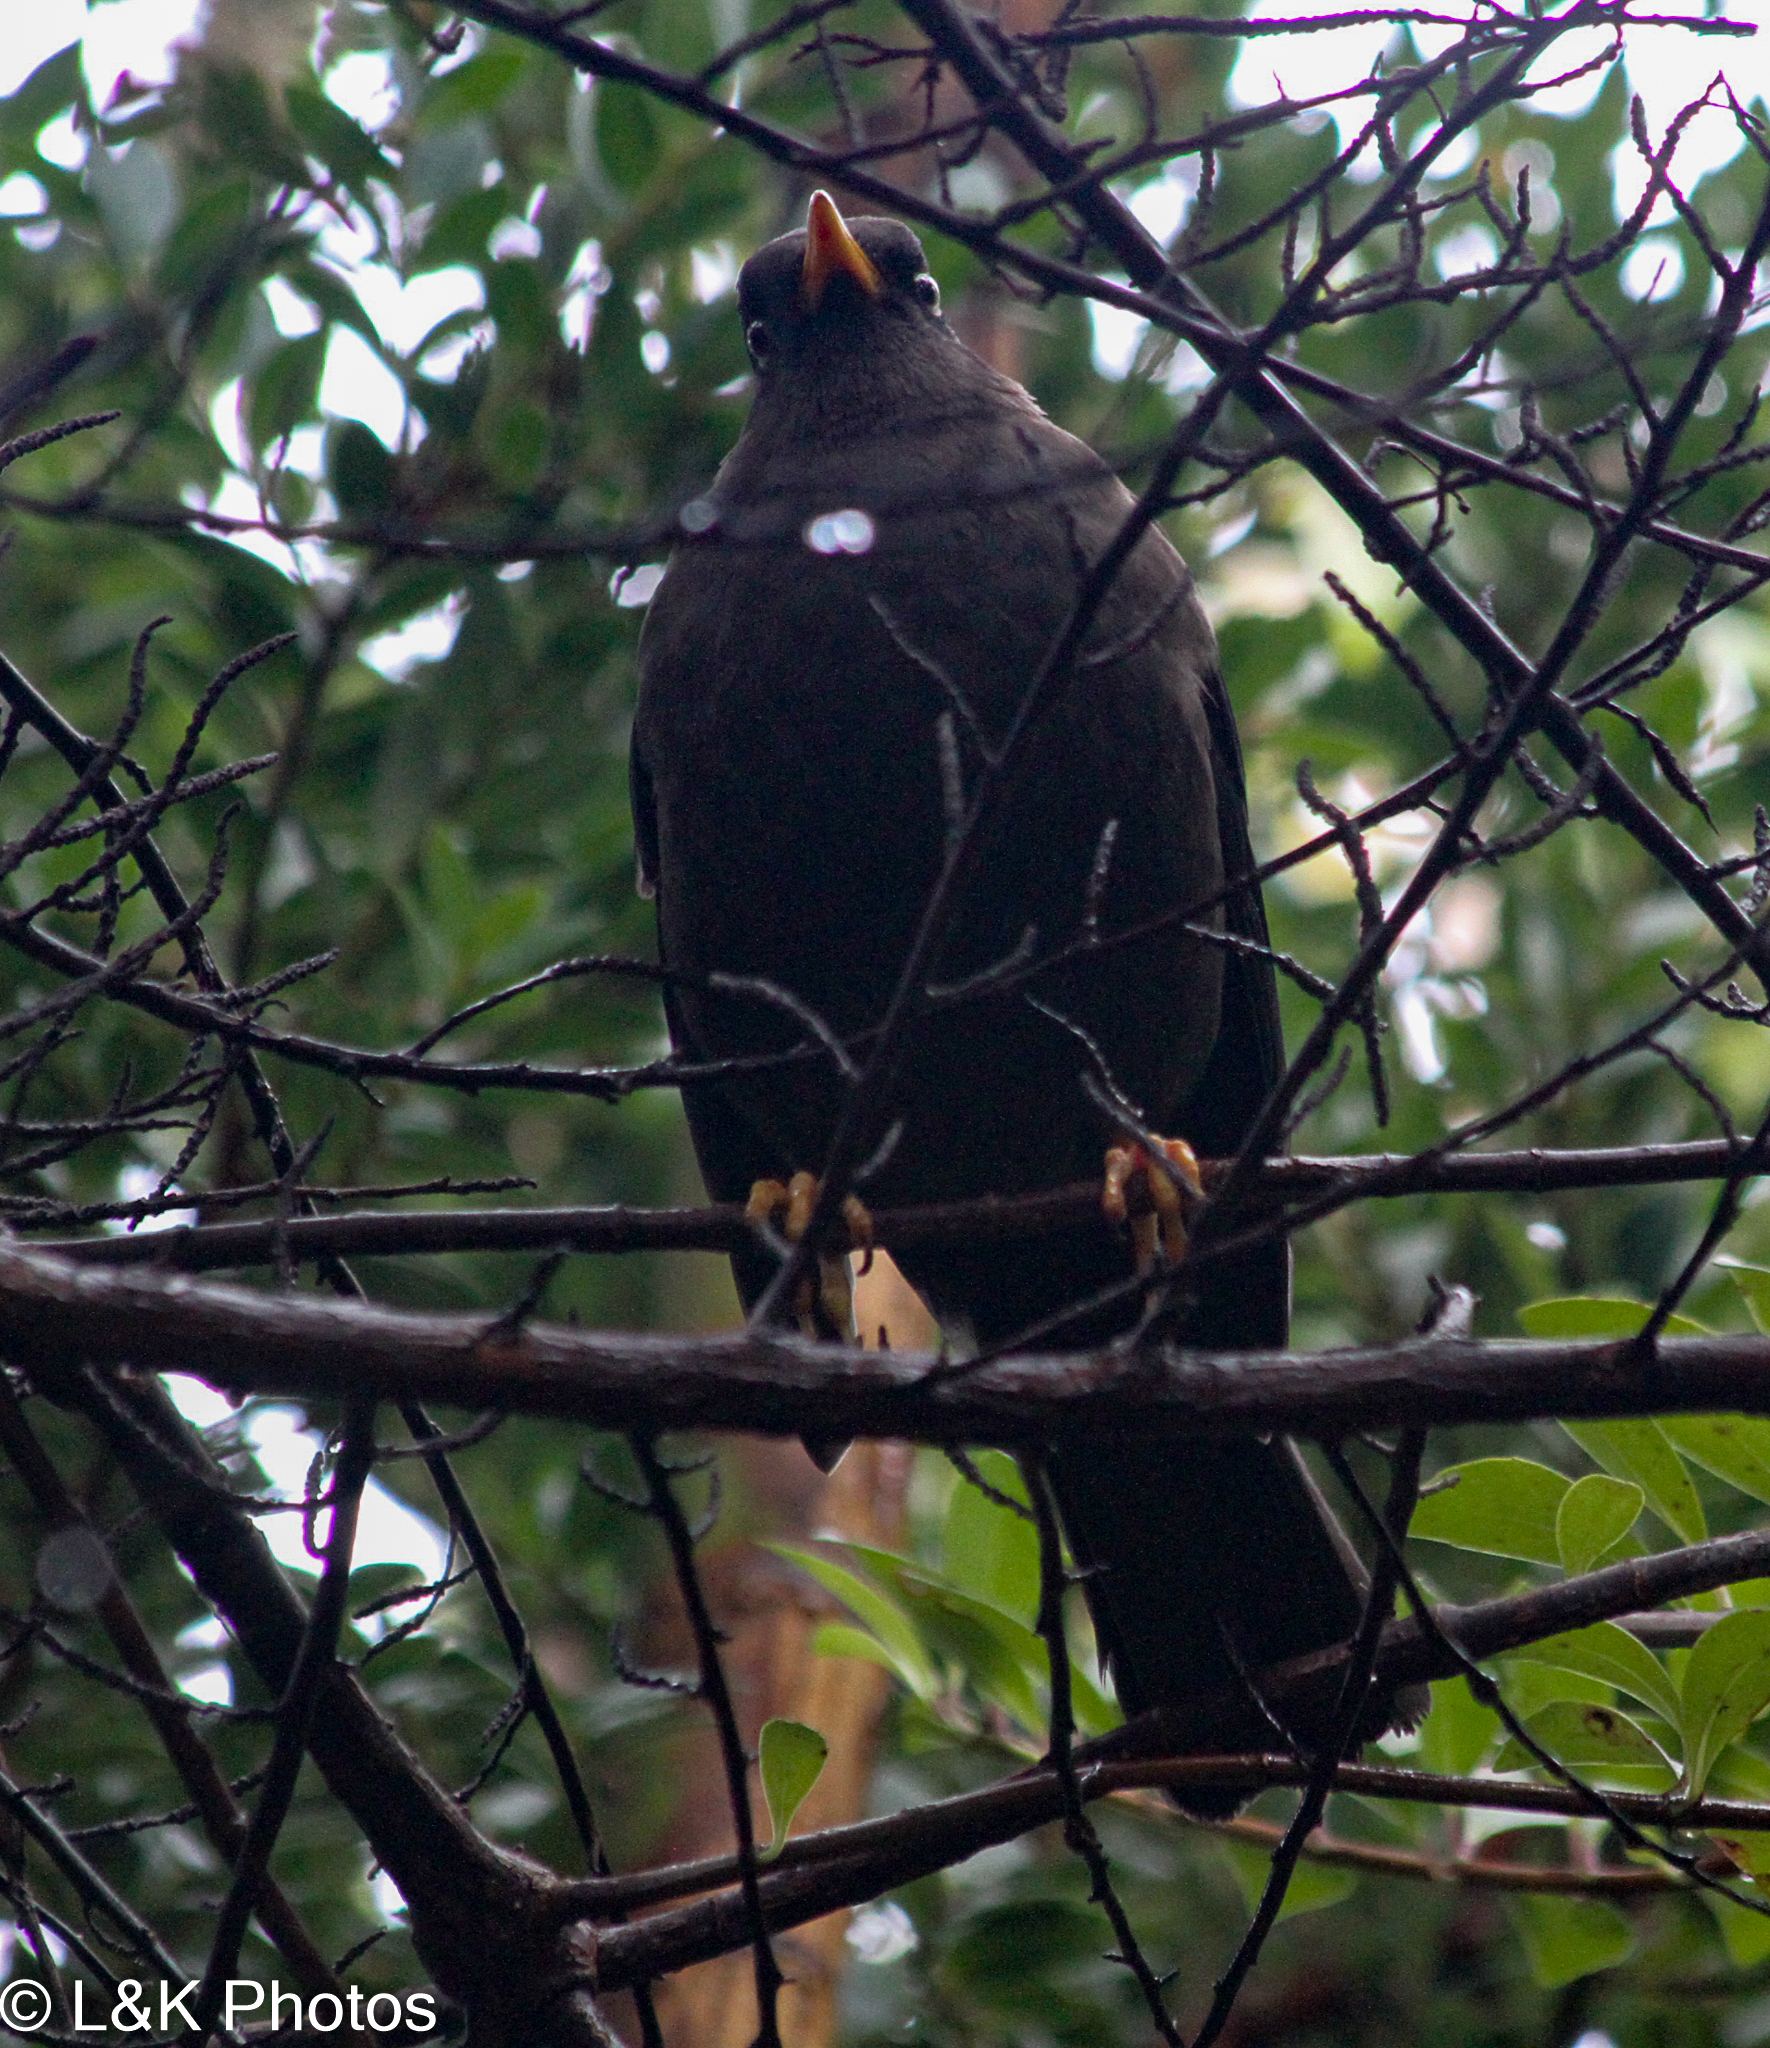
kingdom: Animalia
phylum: Chordata
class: Aves
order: Passeriformes
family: Turdidae
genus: Turdus
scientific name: Turdus nigrescens
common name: Sooty thrush
